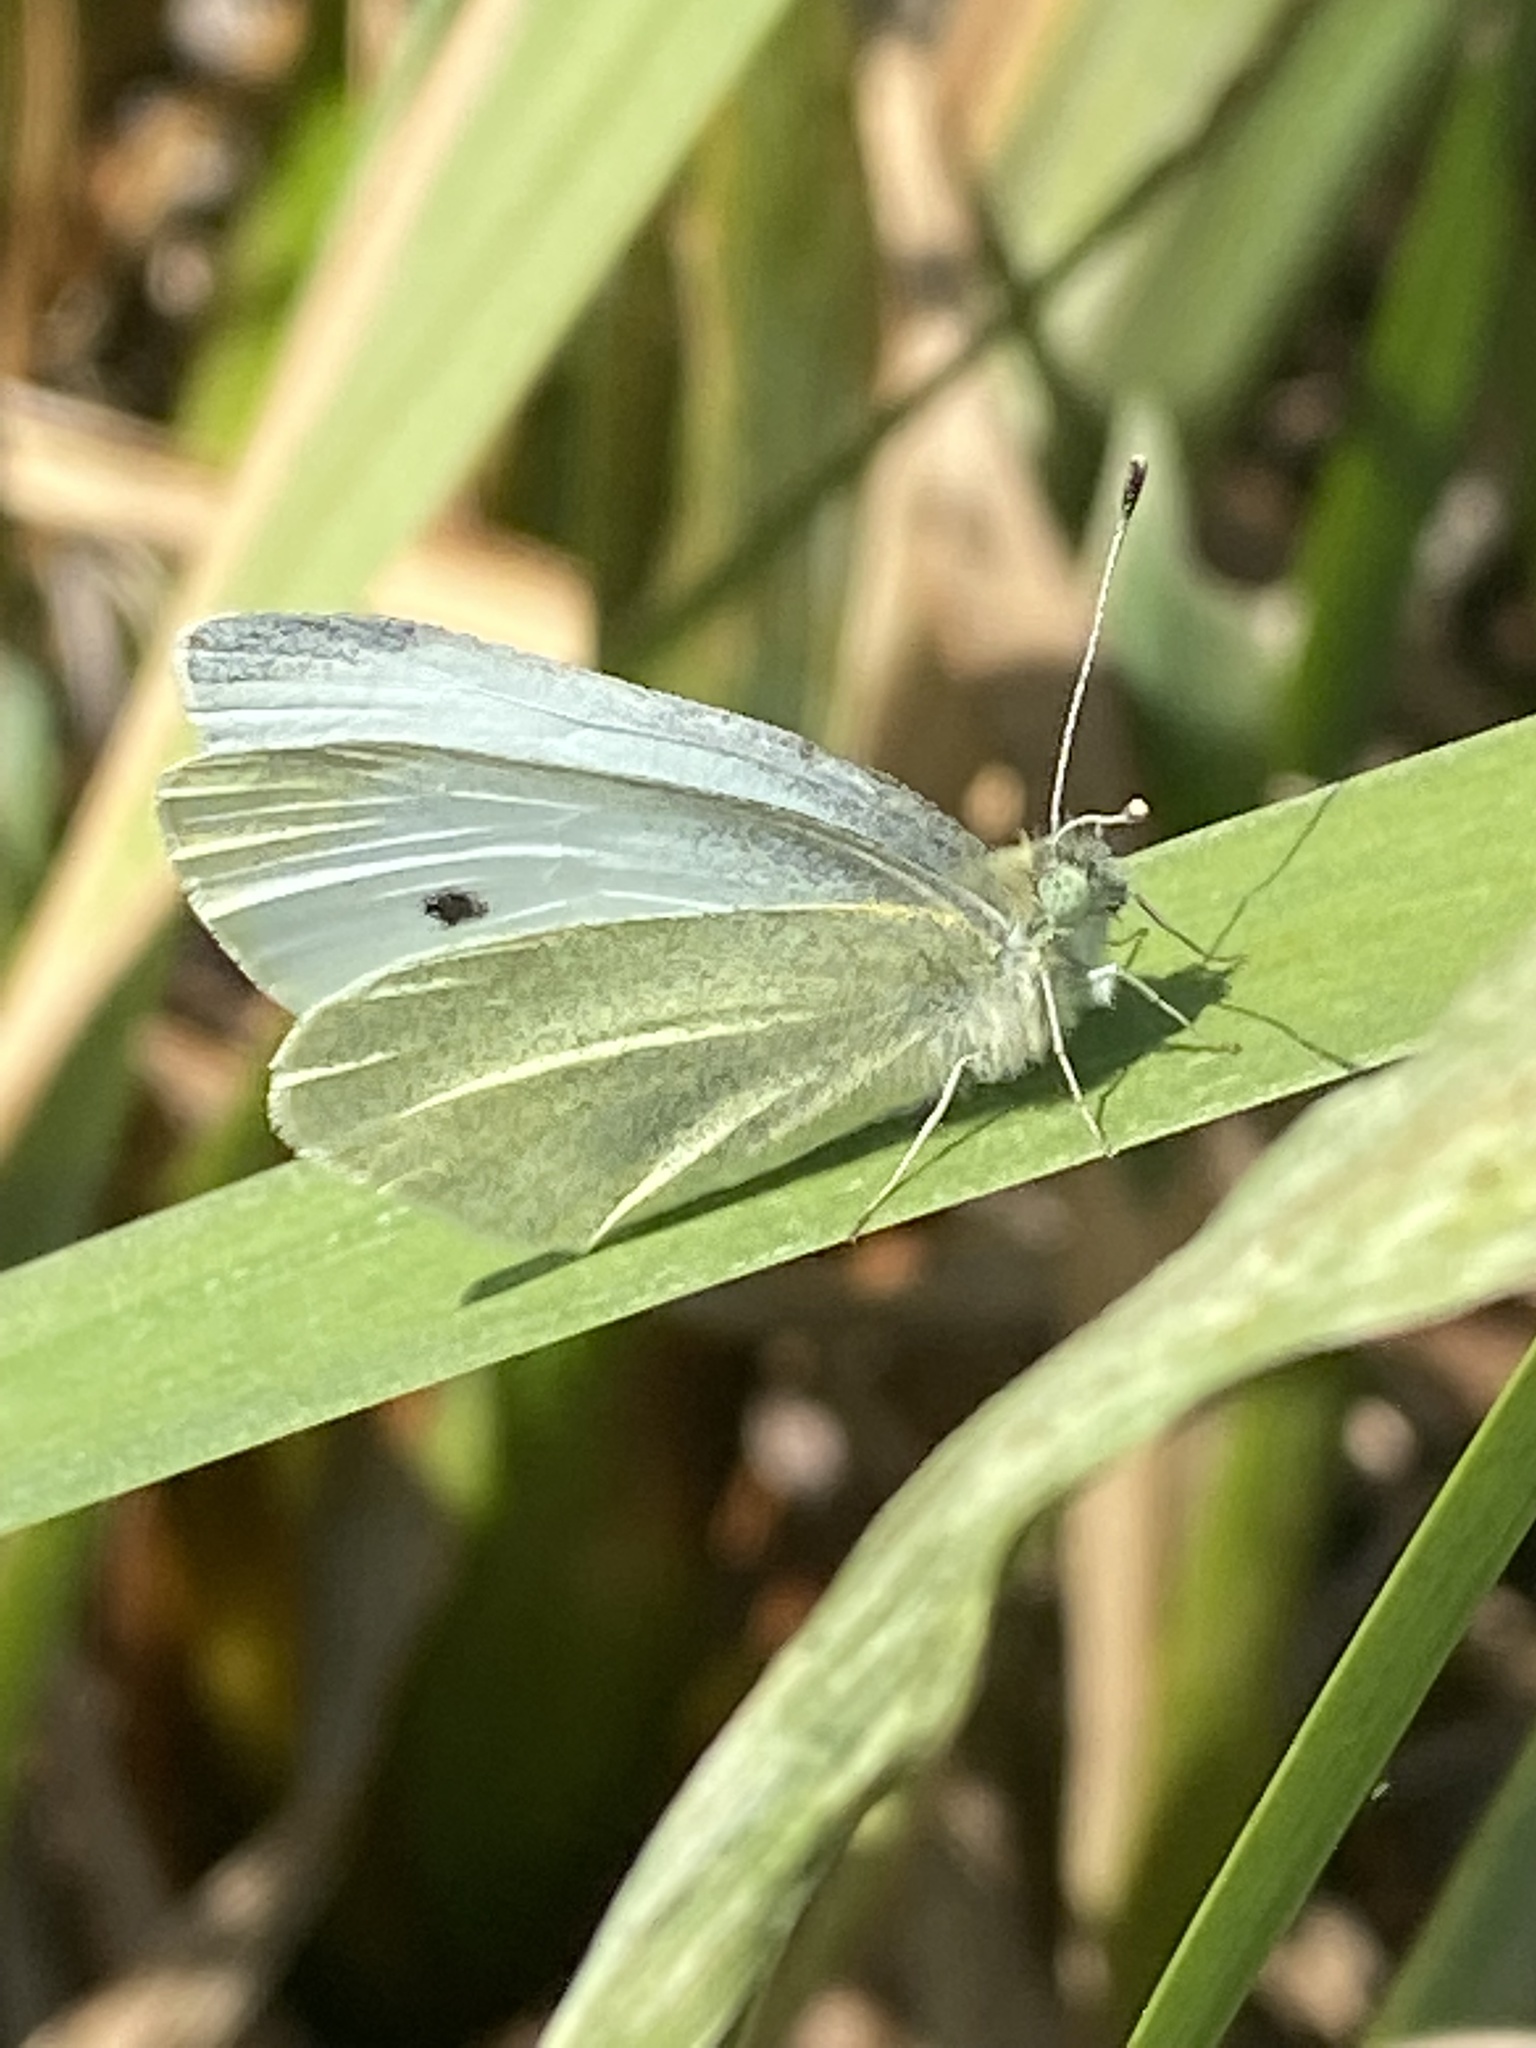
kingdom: Animalia
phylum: Arthropoda
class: Insecta
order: Lepidoptera
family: Pieridae
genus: Pieris
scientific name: Pieris rapae
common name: Small white
